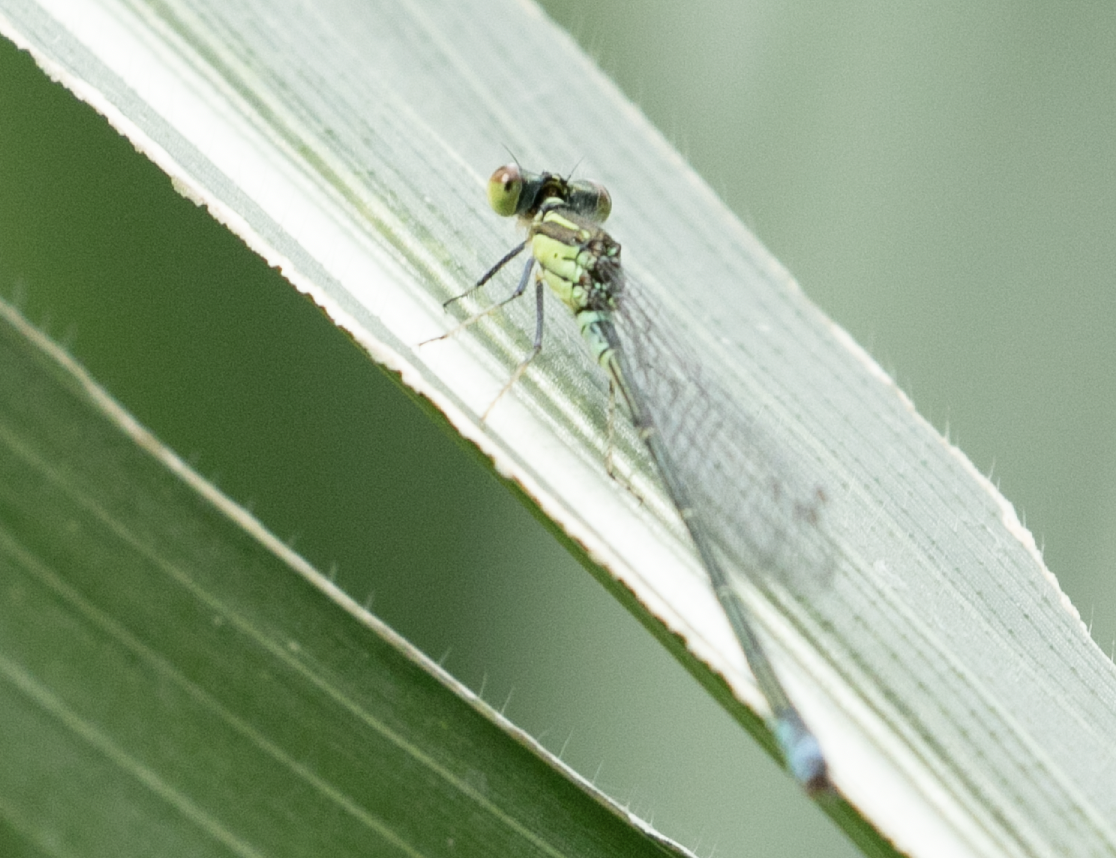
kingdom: Animalia
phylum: Arthropoda
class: Insecta
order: Odonata
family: Coenagrionidae
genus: Erythromma
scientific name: Erythromma viridulum
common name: Small red-eyed damselfly
